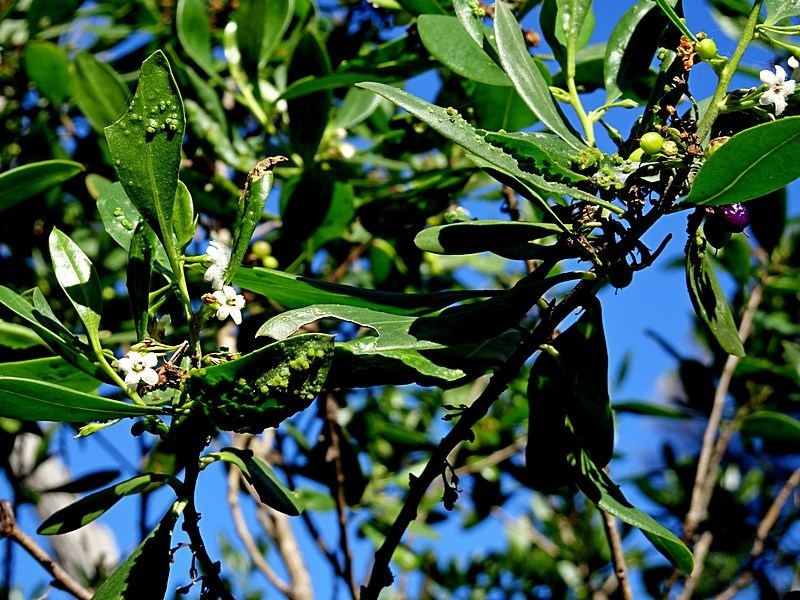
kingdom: Plantae
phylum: Tracheophyta
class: Magnoliopsida
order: Lamiales
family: Scrophulariaceae
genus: Myoporum
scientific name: Myoporum boninense
